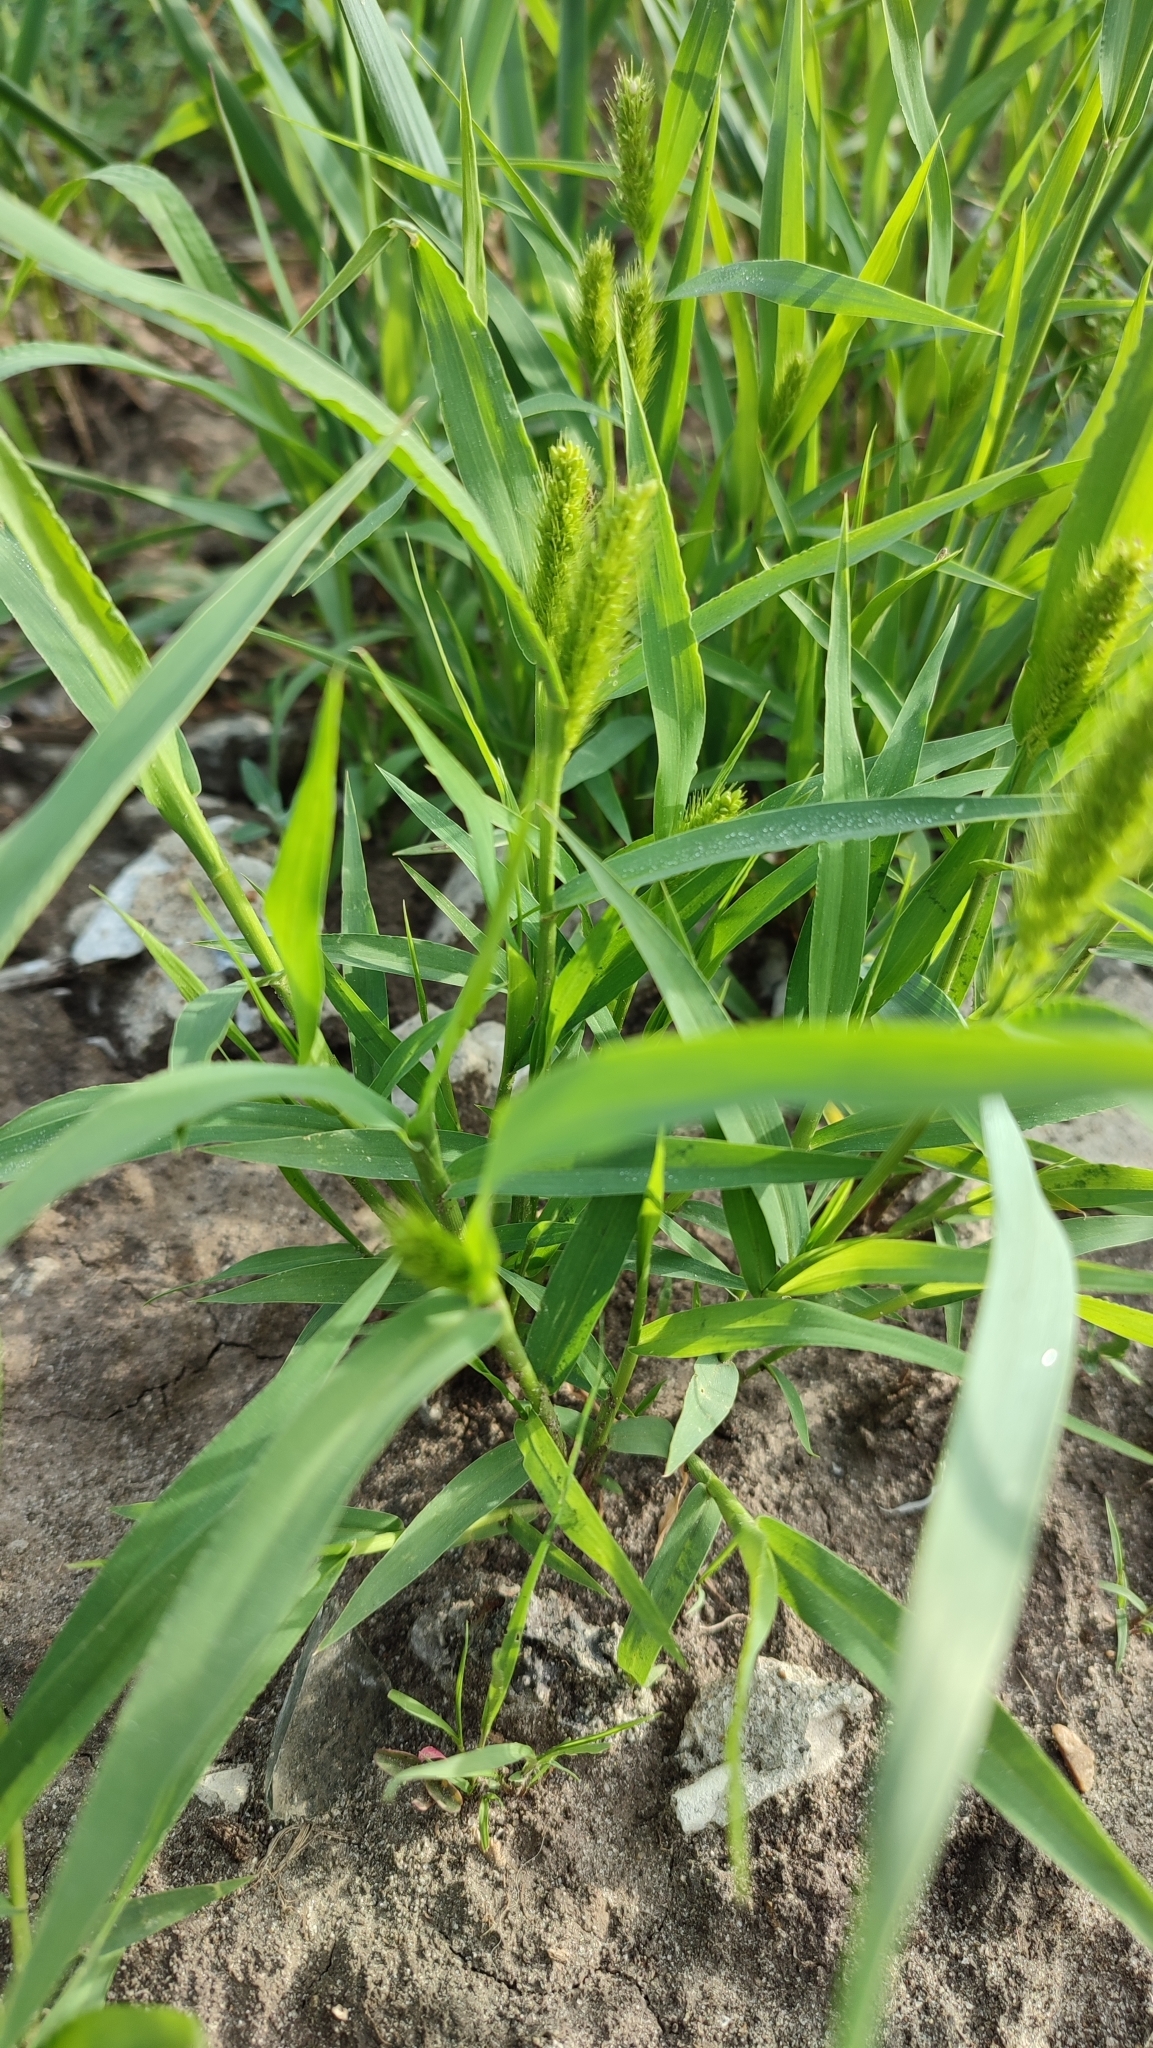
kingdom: Plantae
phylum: Tracheophyta
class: Liliopsida
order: Poales
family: Poaceae
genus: Setaria
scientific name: Setaria viridis
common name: Green bristlegrass
